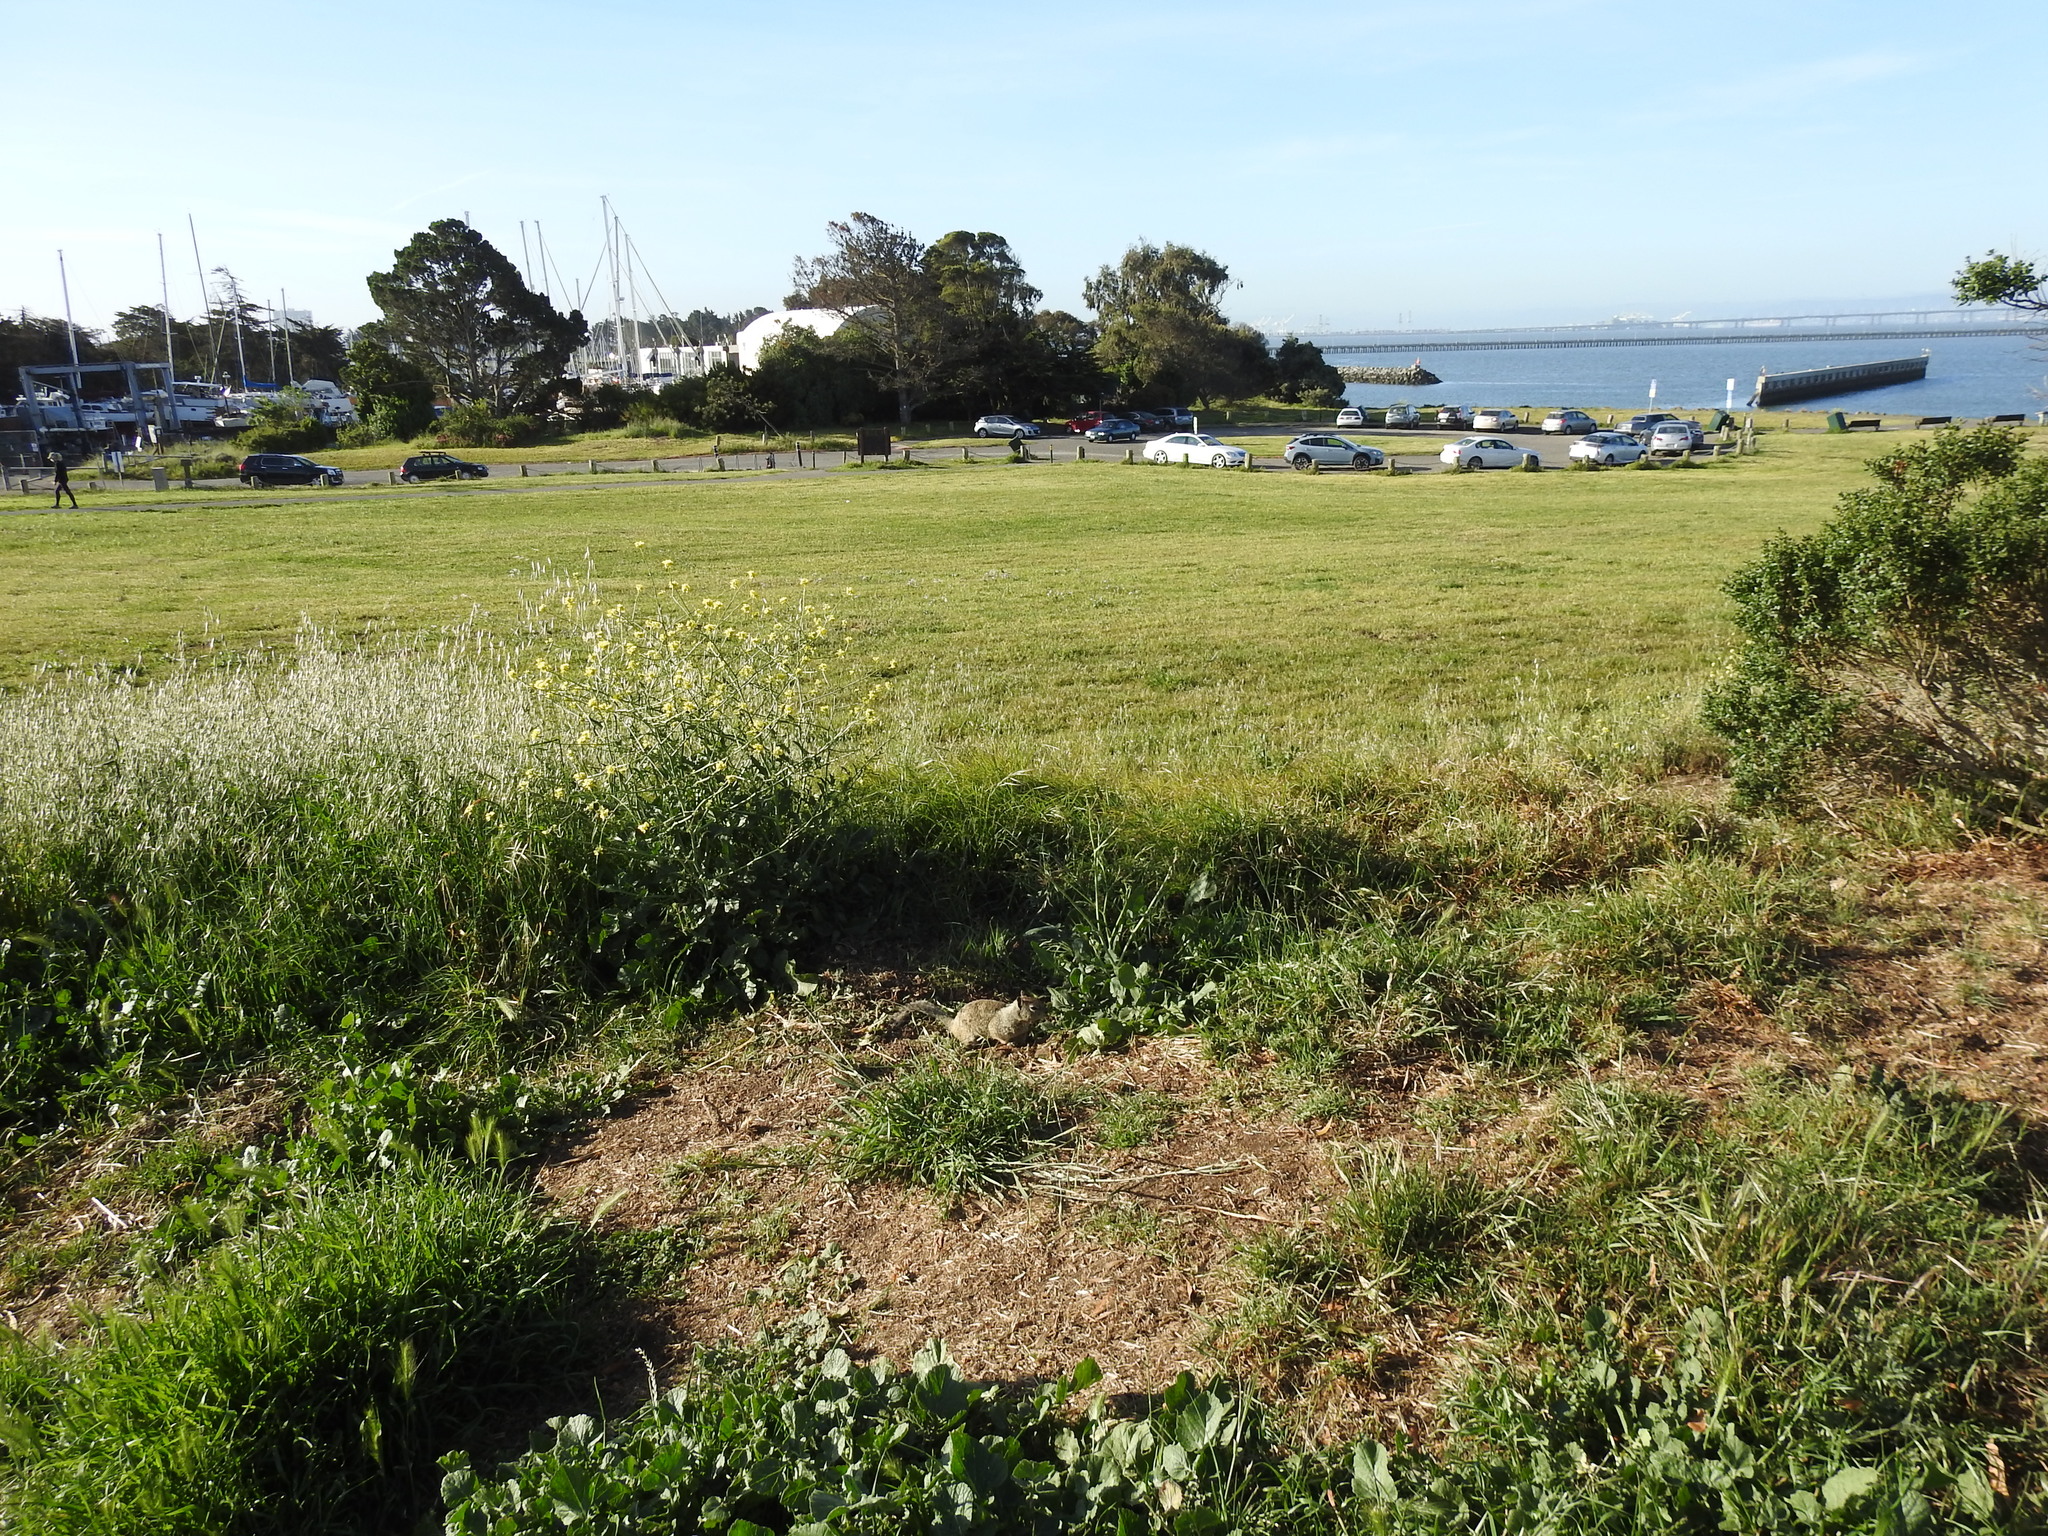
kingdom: Animalia
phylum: Chordata
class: Mammalia
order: Rodentia
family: Sciuridae
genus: Otospermophilus
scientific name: Otospermophilus beecheyi
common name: California ground squirrel
